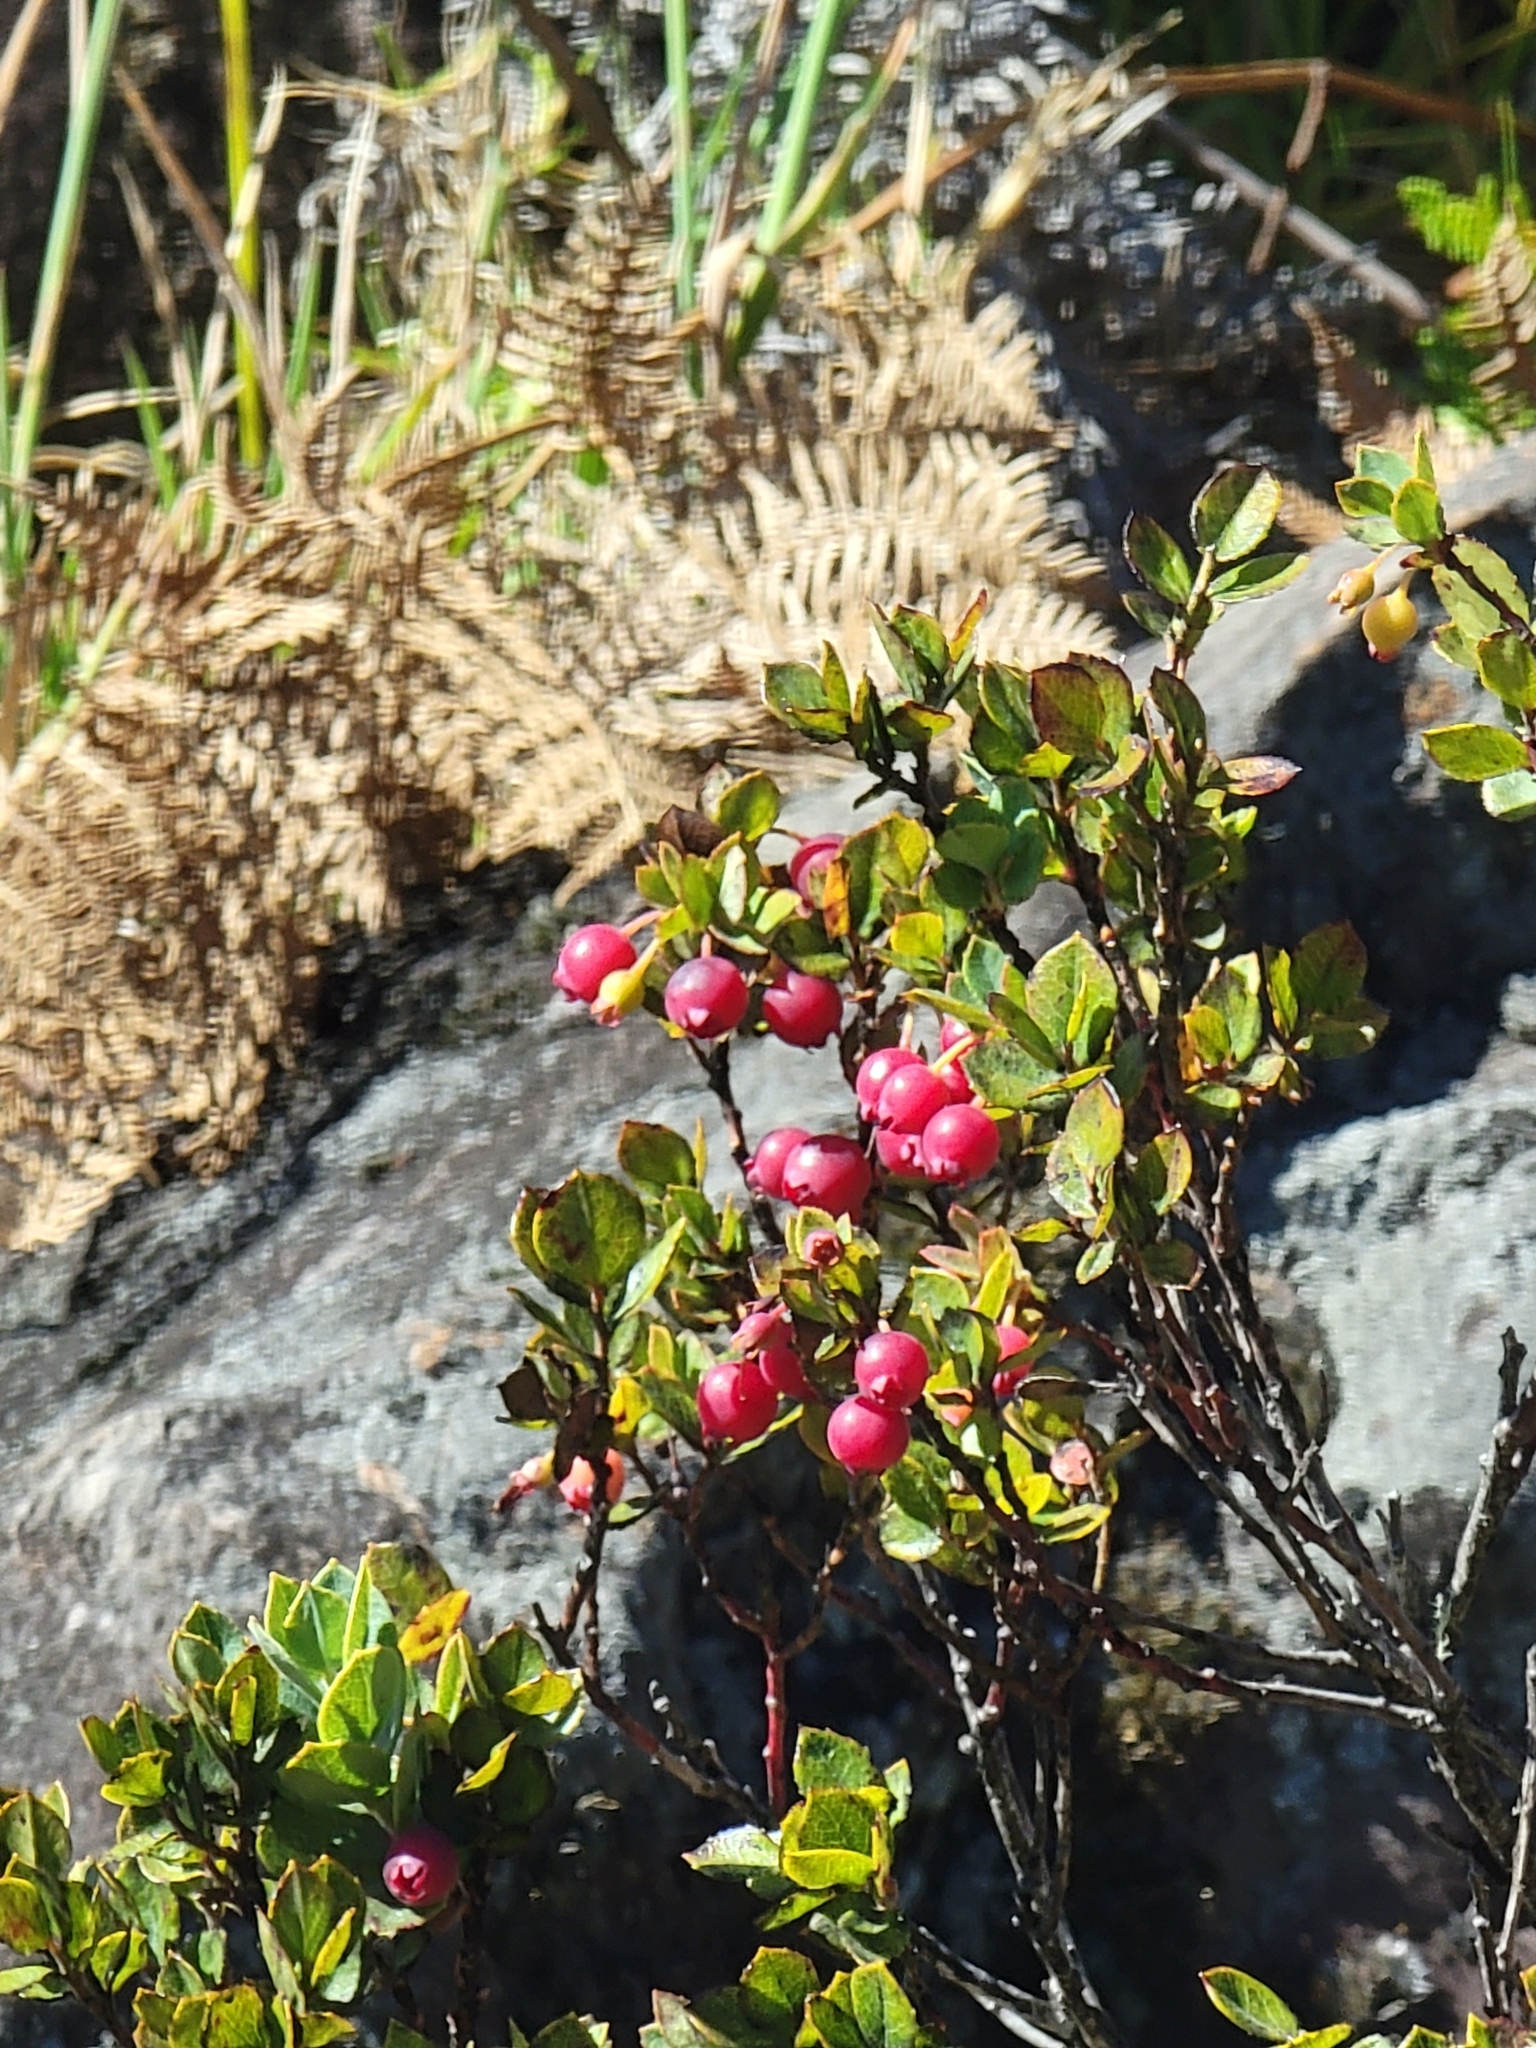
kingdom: Plantae
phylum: Tracheophyta
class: Magnoliopsida
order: Ericales
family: Ericaceae
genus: Vaccinium
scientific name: Vaccinium reticulatum
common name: Ohelo
